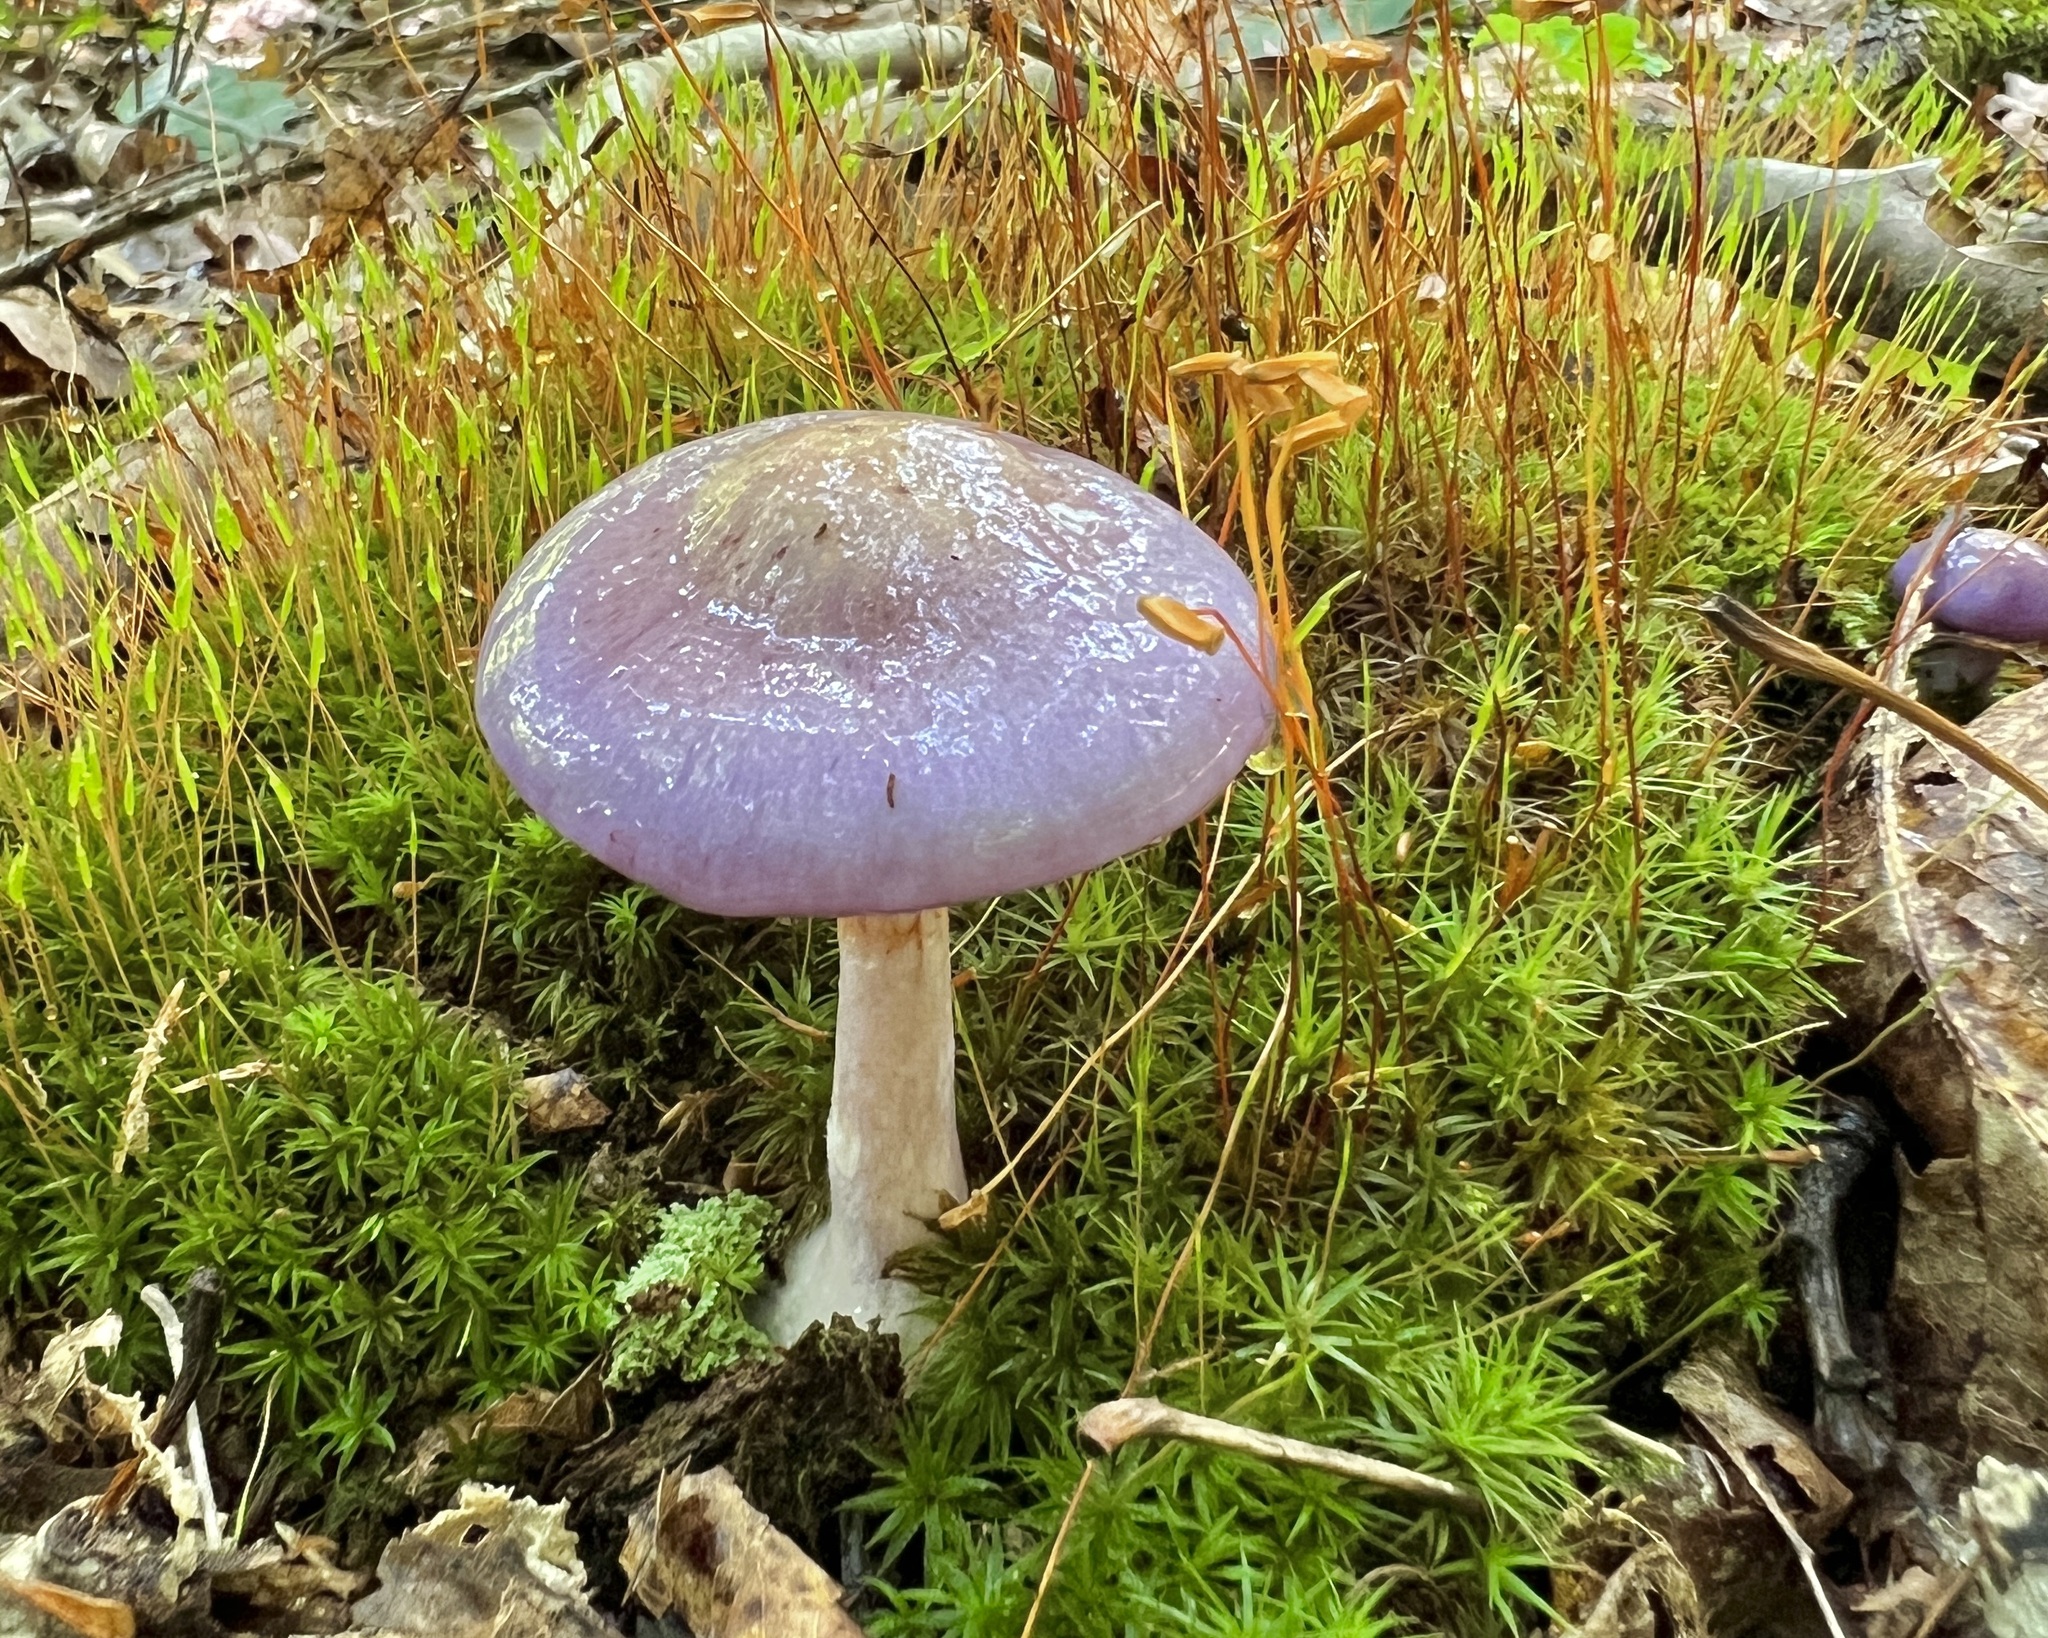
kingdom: Fungi
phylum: Basidiomycota
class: Agaricomycetes
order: Agaricales
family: Cortinariaceae
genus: Cortinarius
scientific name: Cortinarius iodes
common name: Viscid violet cort
